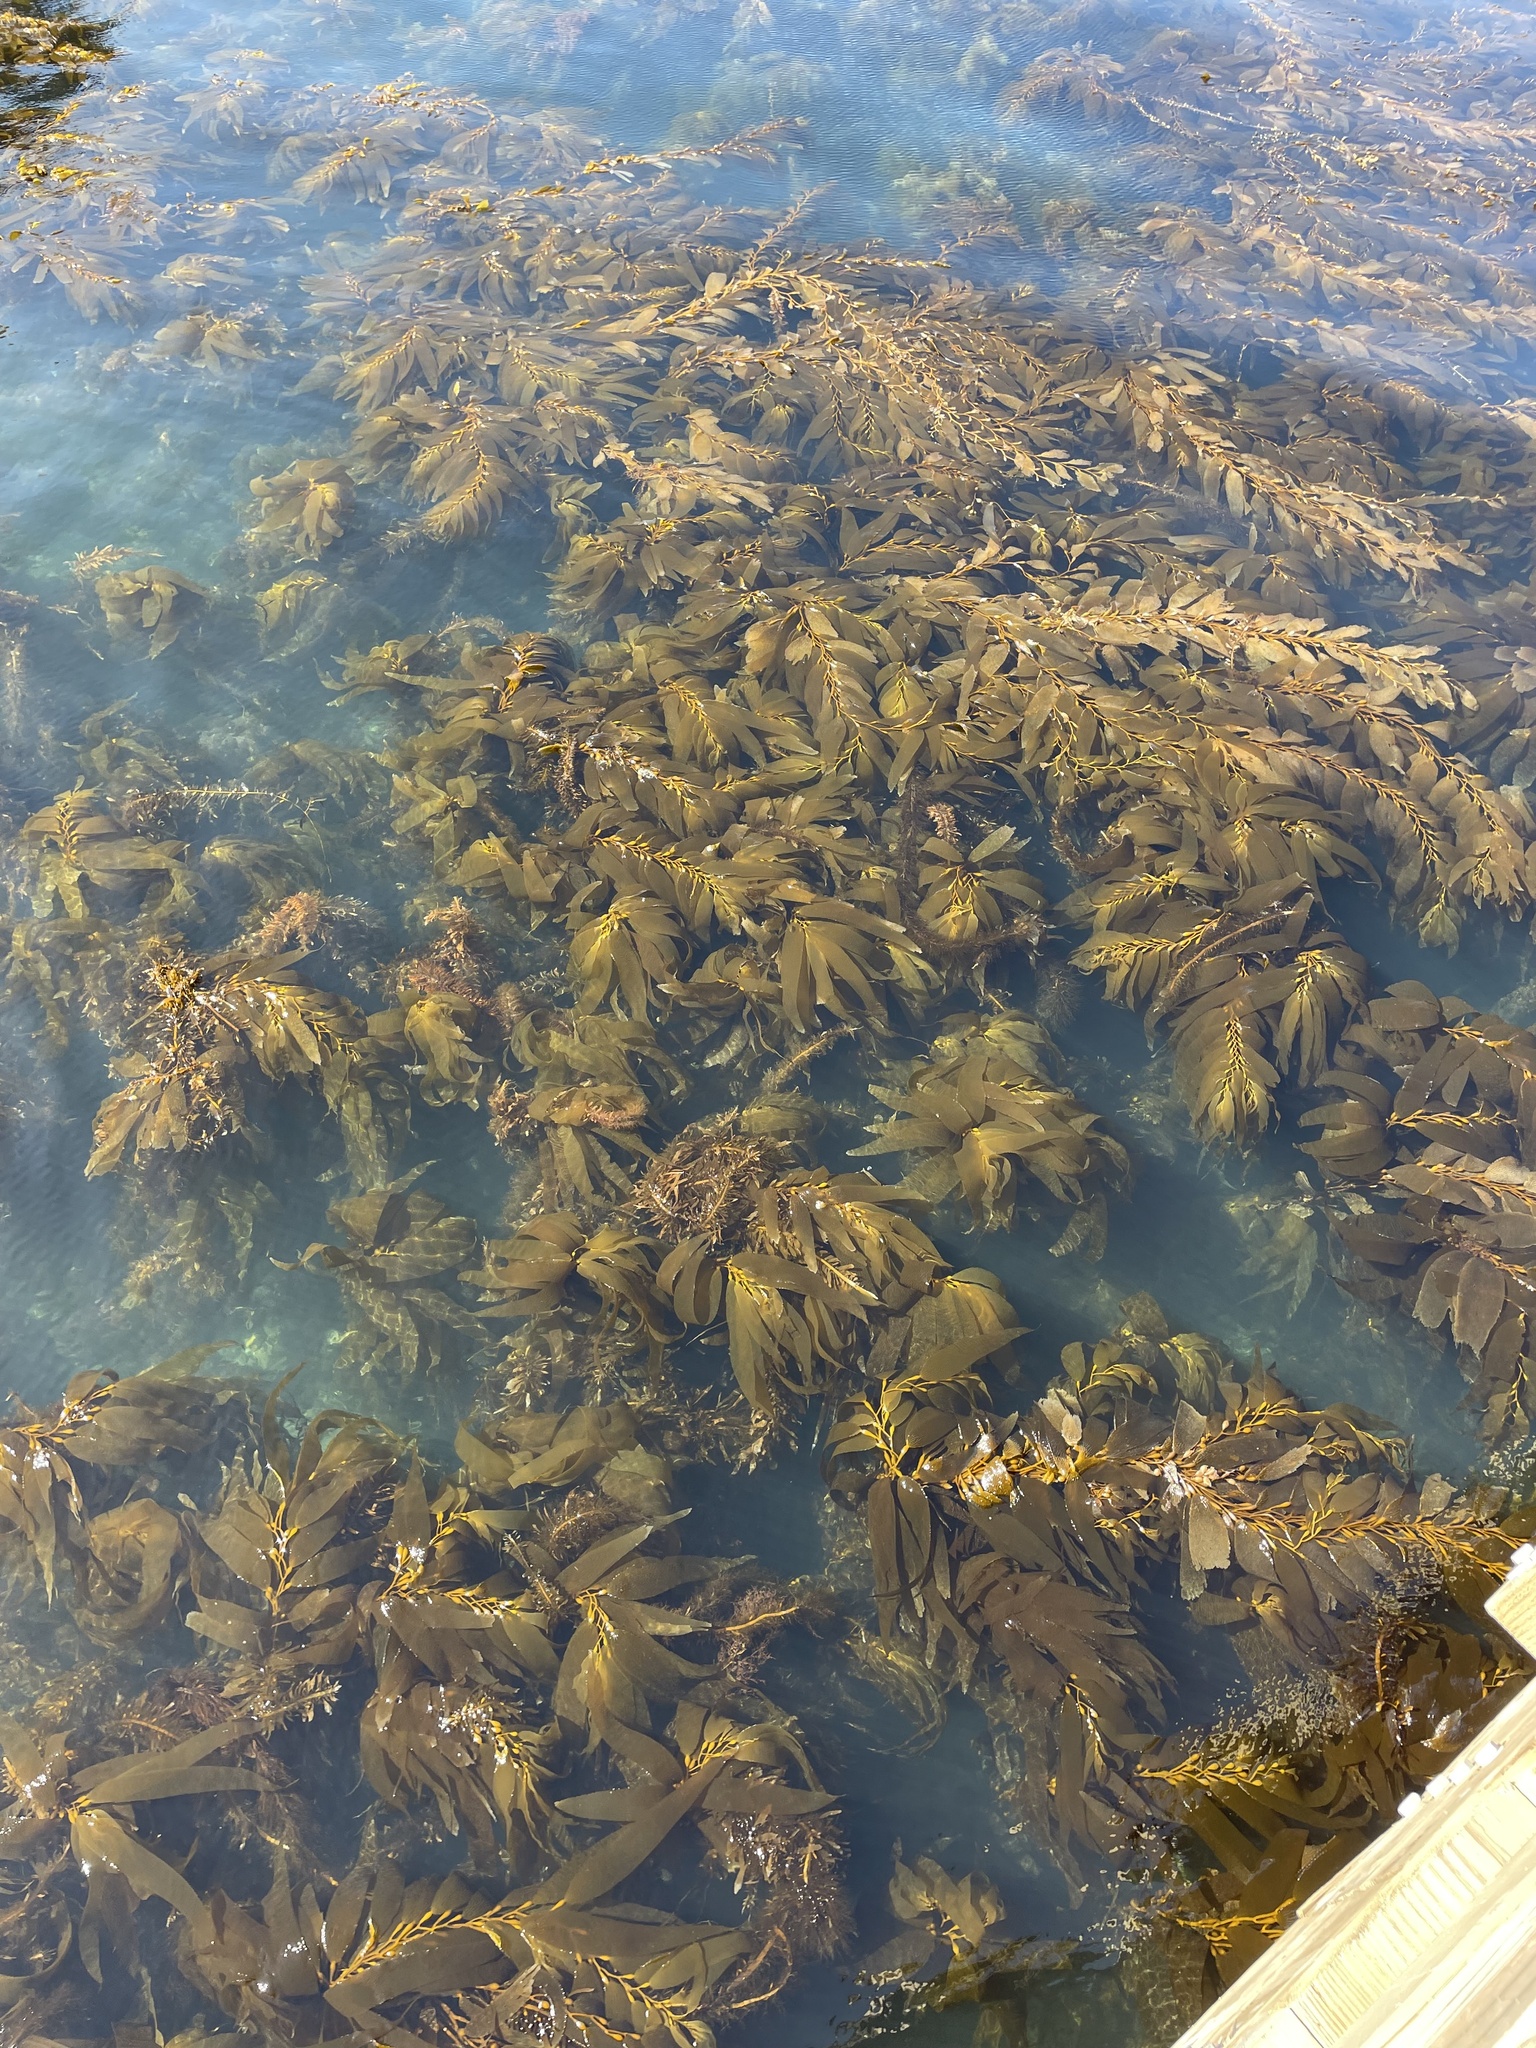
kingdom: Chromista
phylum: Ochrophyta
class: Phaeophyceae
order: Laminariales
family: Laminariaceae
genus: Macrocystis
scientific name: Macrocystis pyrifera
